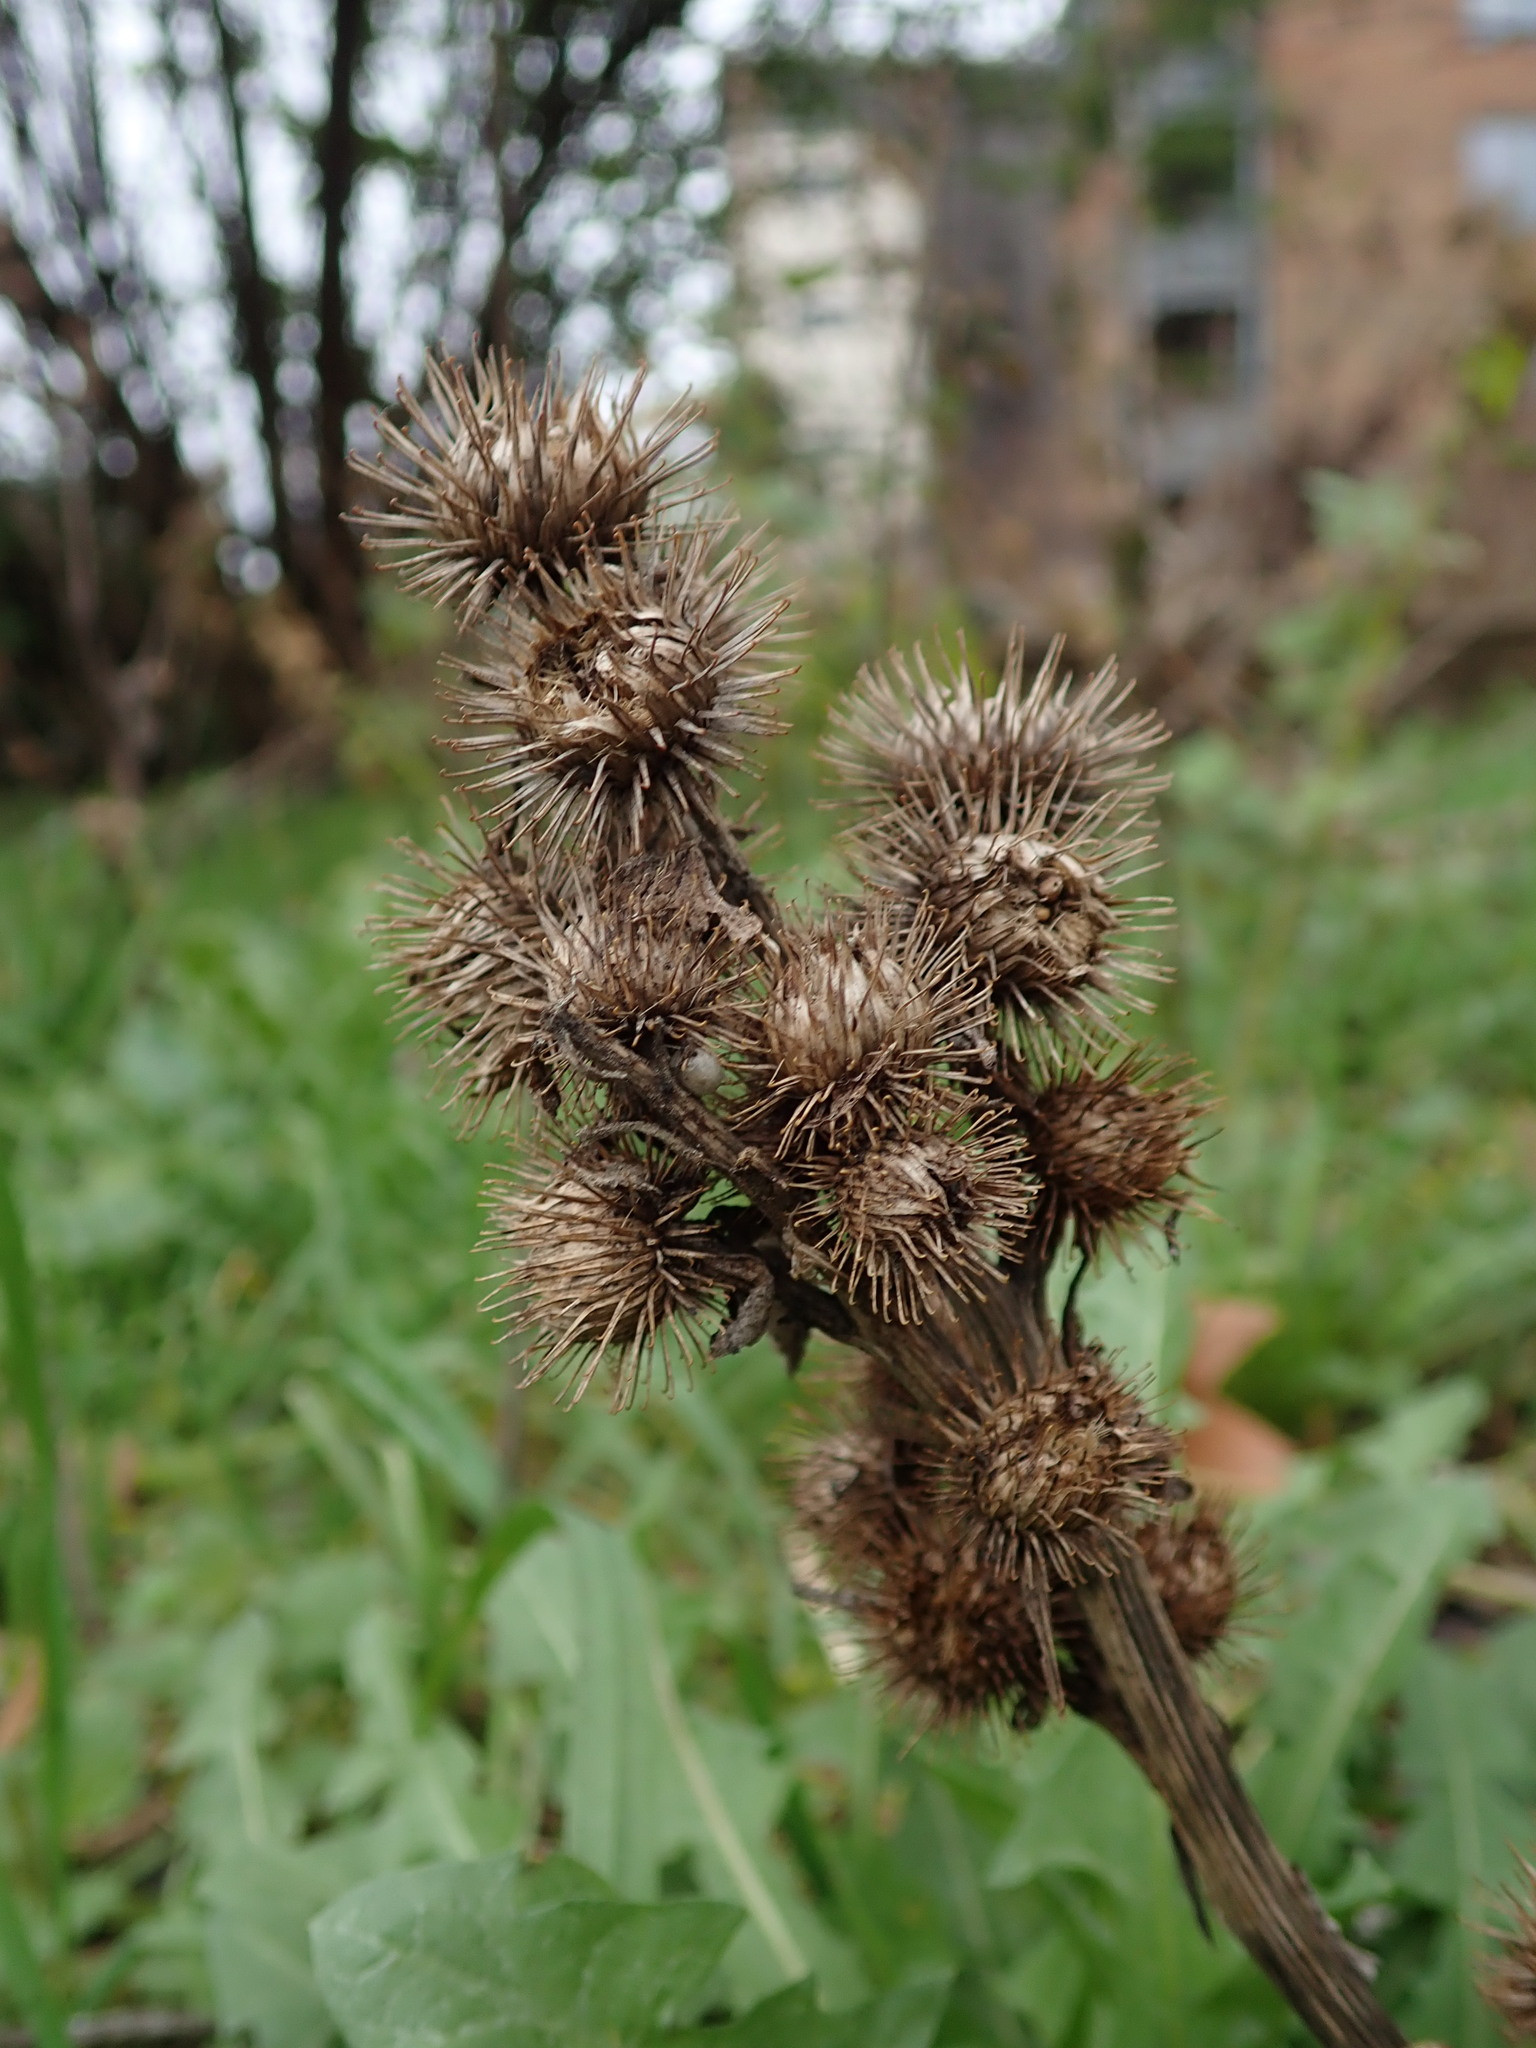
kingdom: Plantae
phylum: Tracheophyta
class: Magnoliopsida
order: Asterales
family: Asteraceae
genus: Arctium
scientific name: Arctium minus
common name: Lesser burdock
